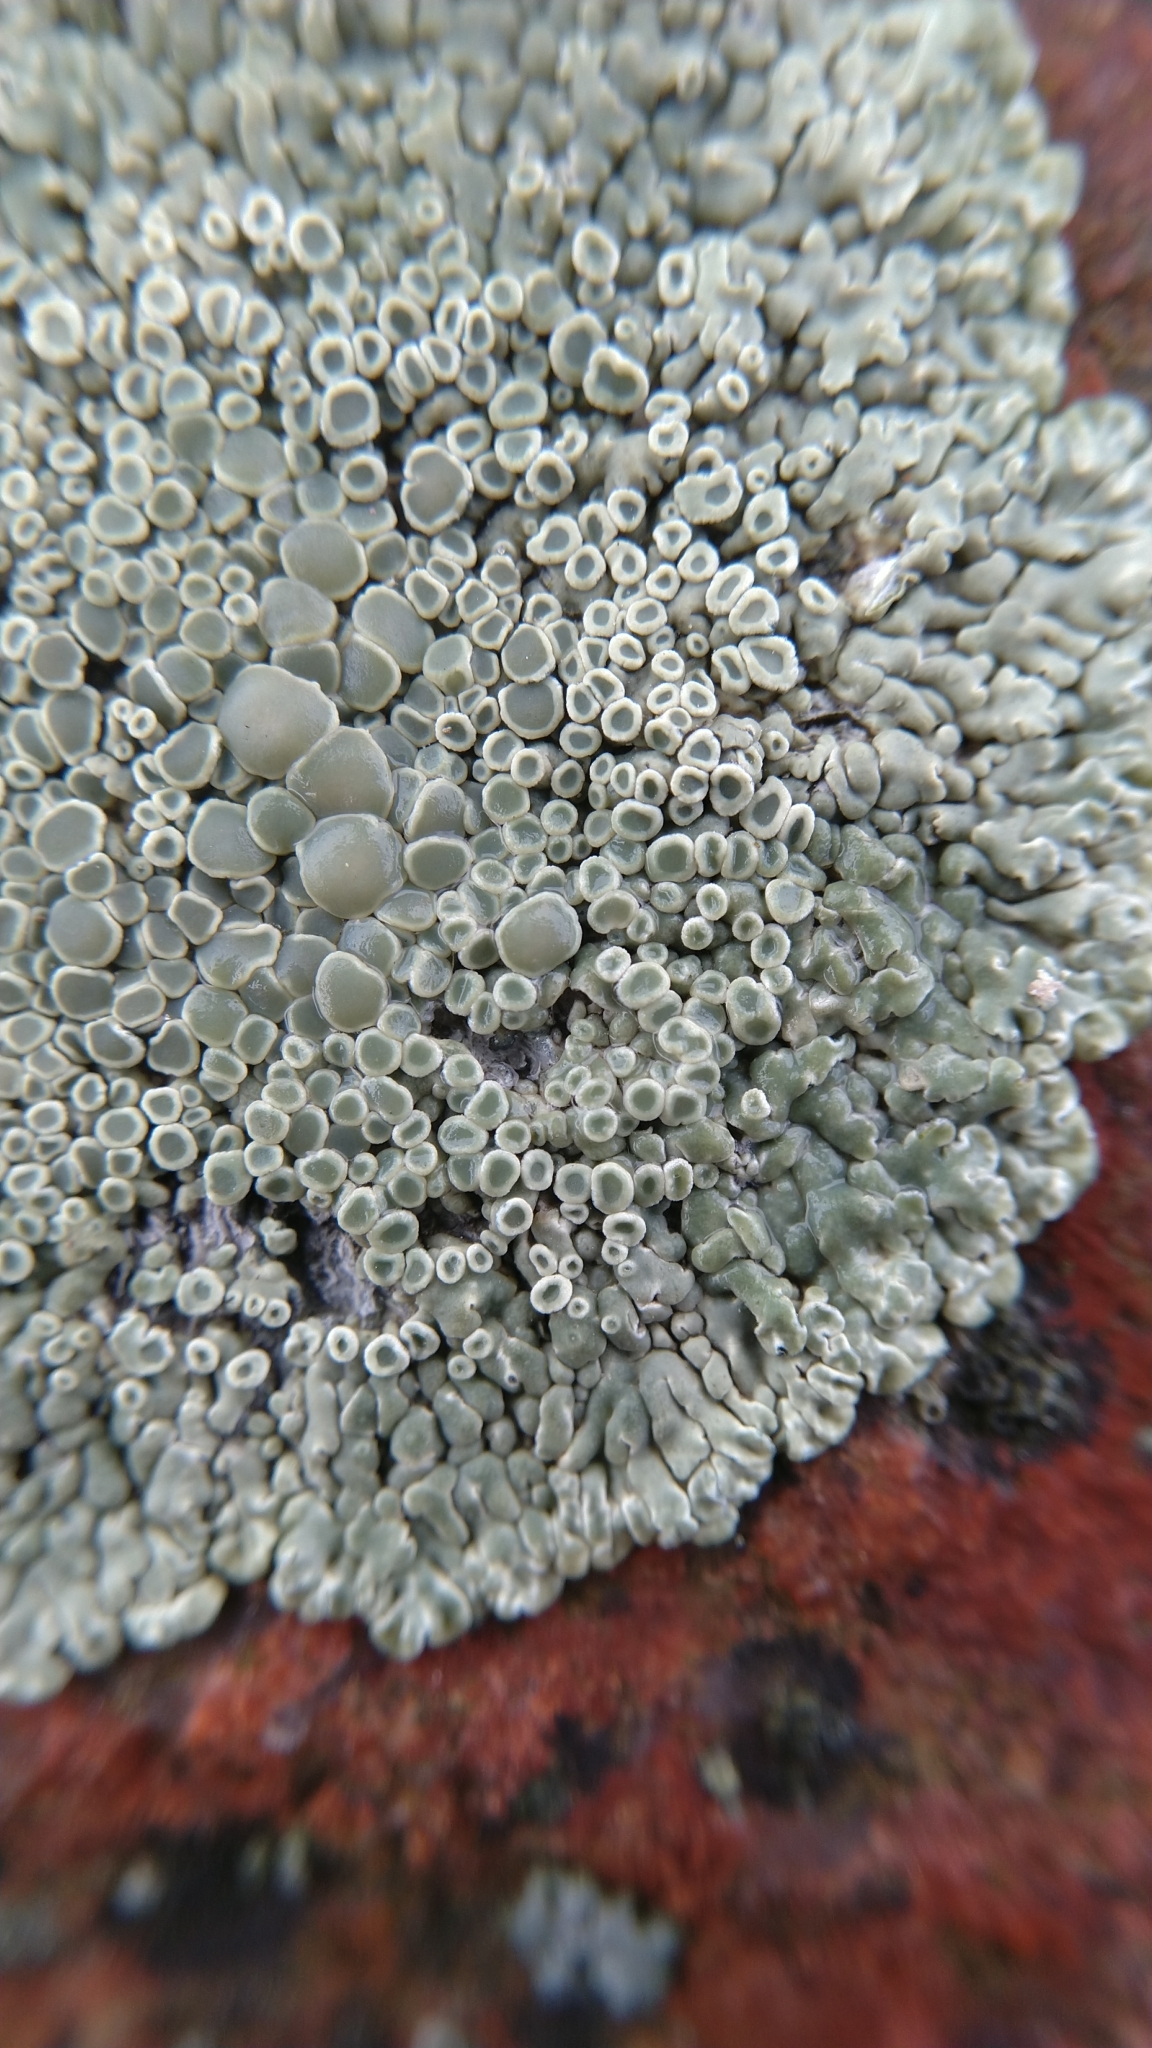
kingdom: Fungi
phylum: Ascomycota
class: Lecanoromycetes
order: Lecanorales
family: Lecanoraceae
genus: Protoparmeliopsis
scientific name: Protoparmeliopsis muralis
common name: Stonewall rim lichen
